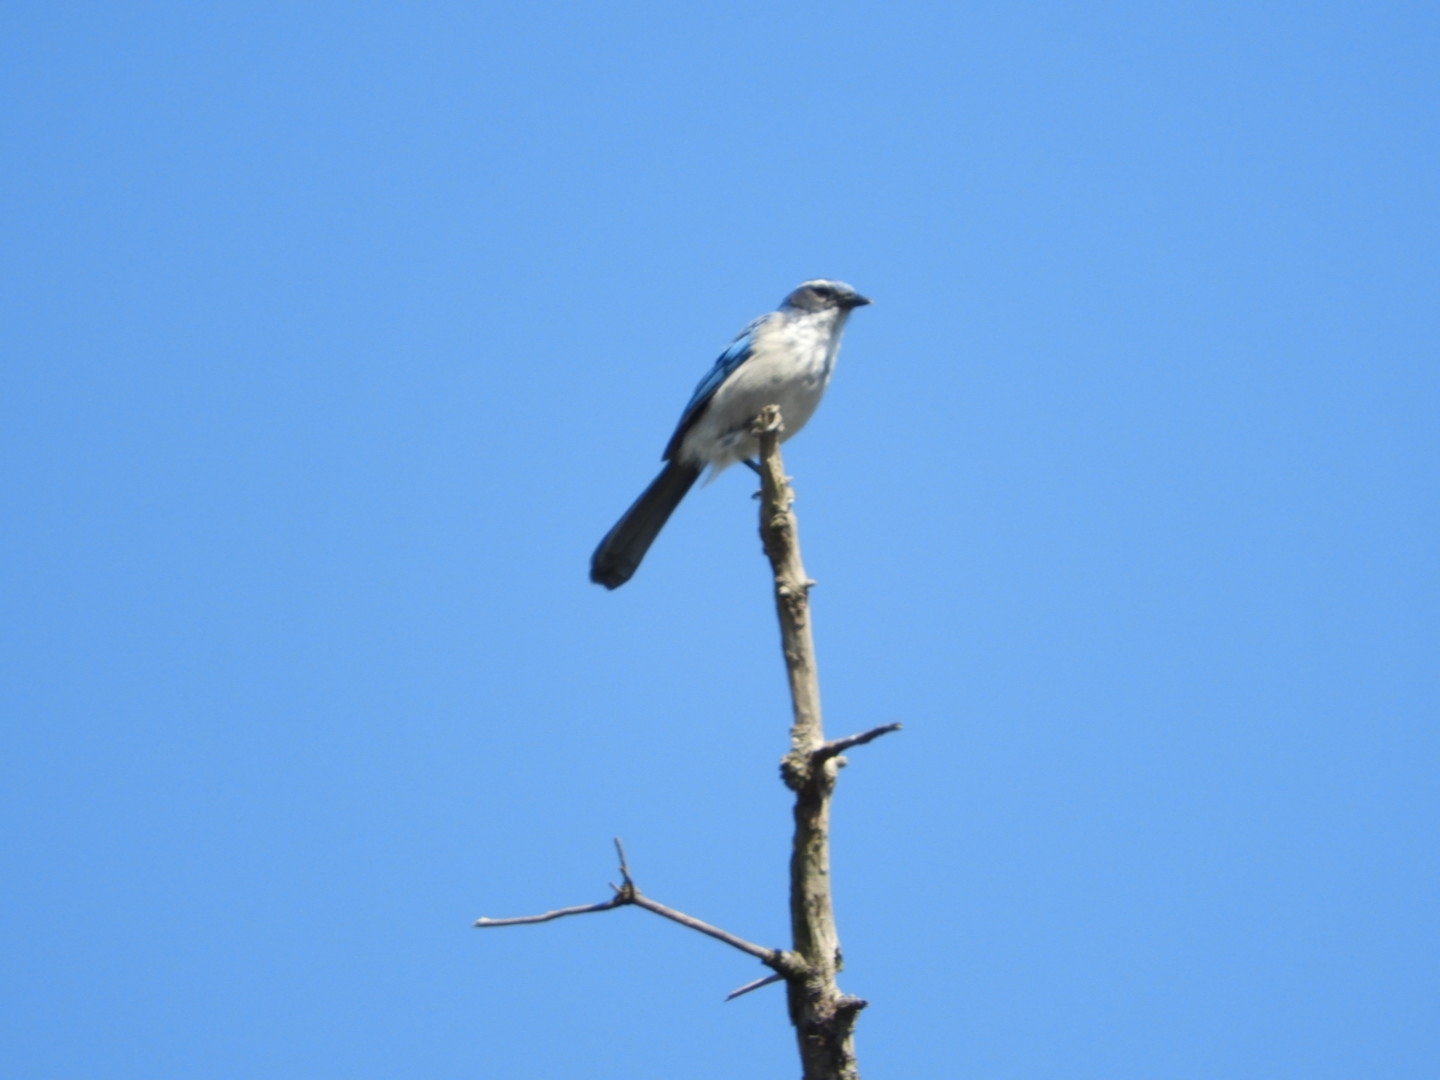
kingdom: Animalia
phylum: Chordata
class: Aves
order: Passeriformes
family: Corvidae
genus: Aphelocoma
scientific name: Aphelocoma californica
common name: California scrub-jay
